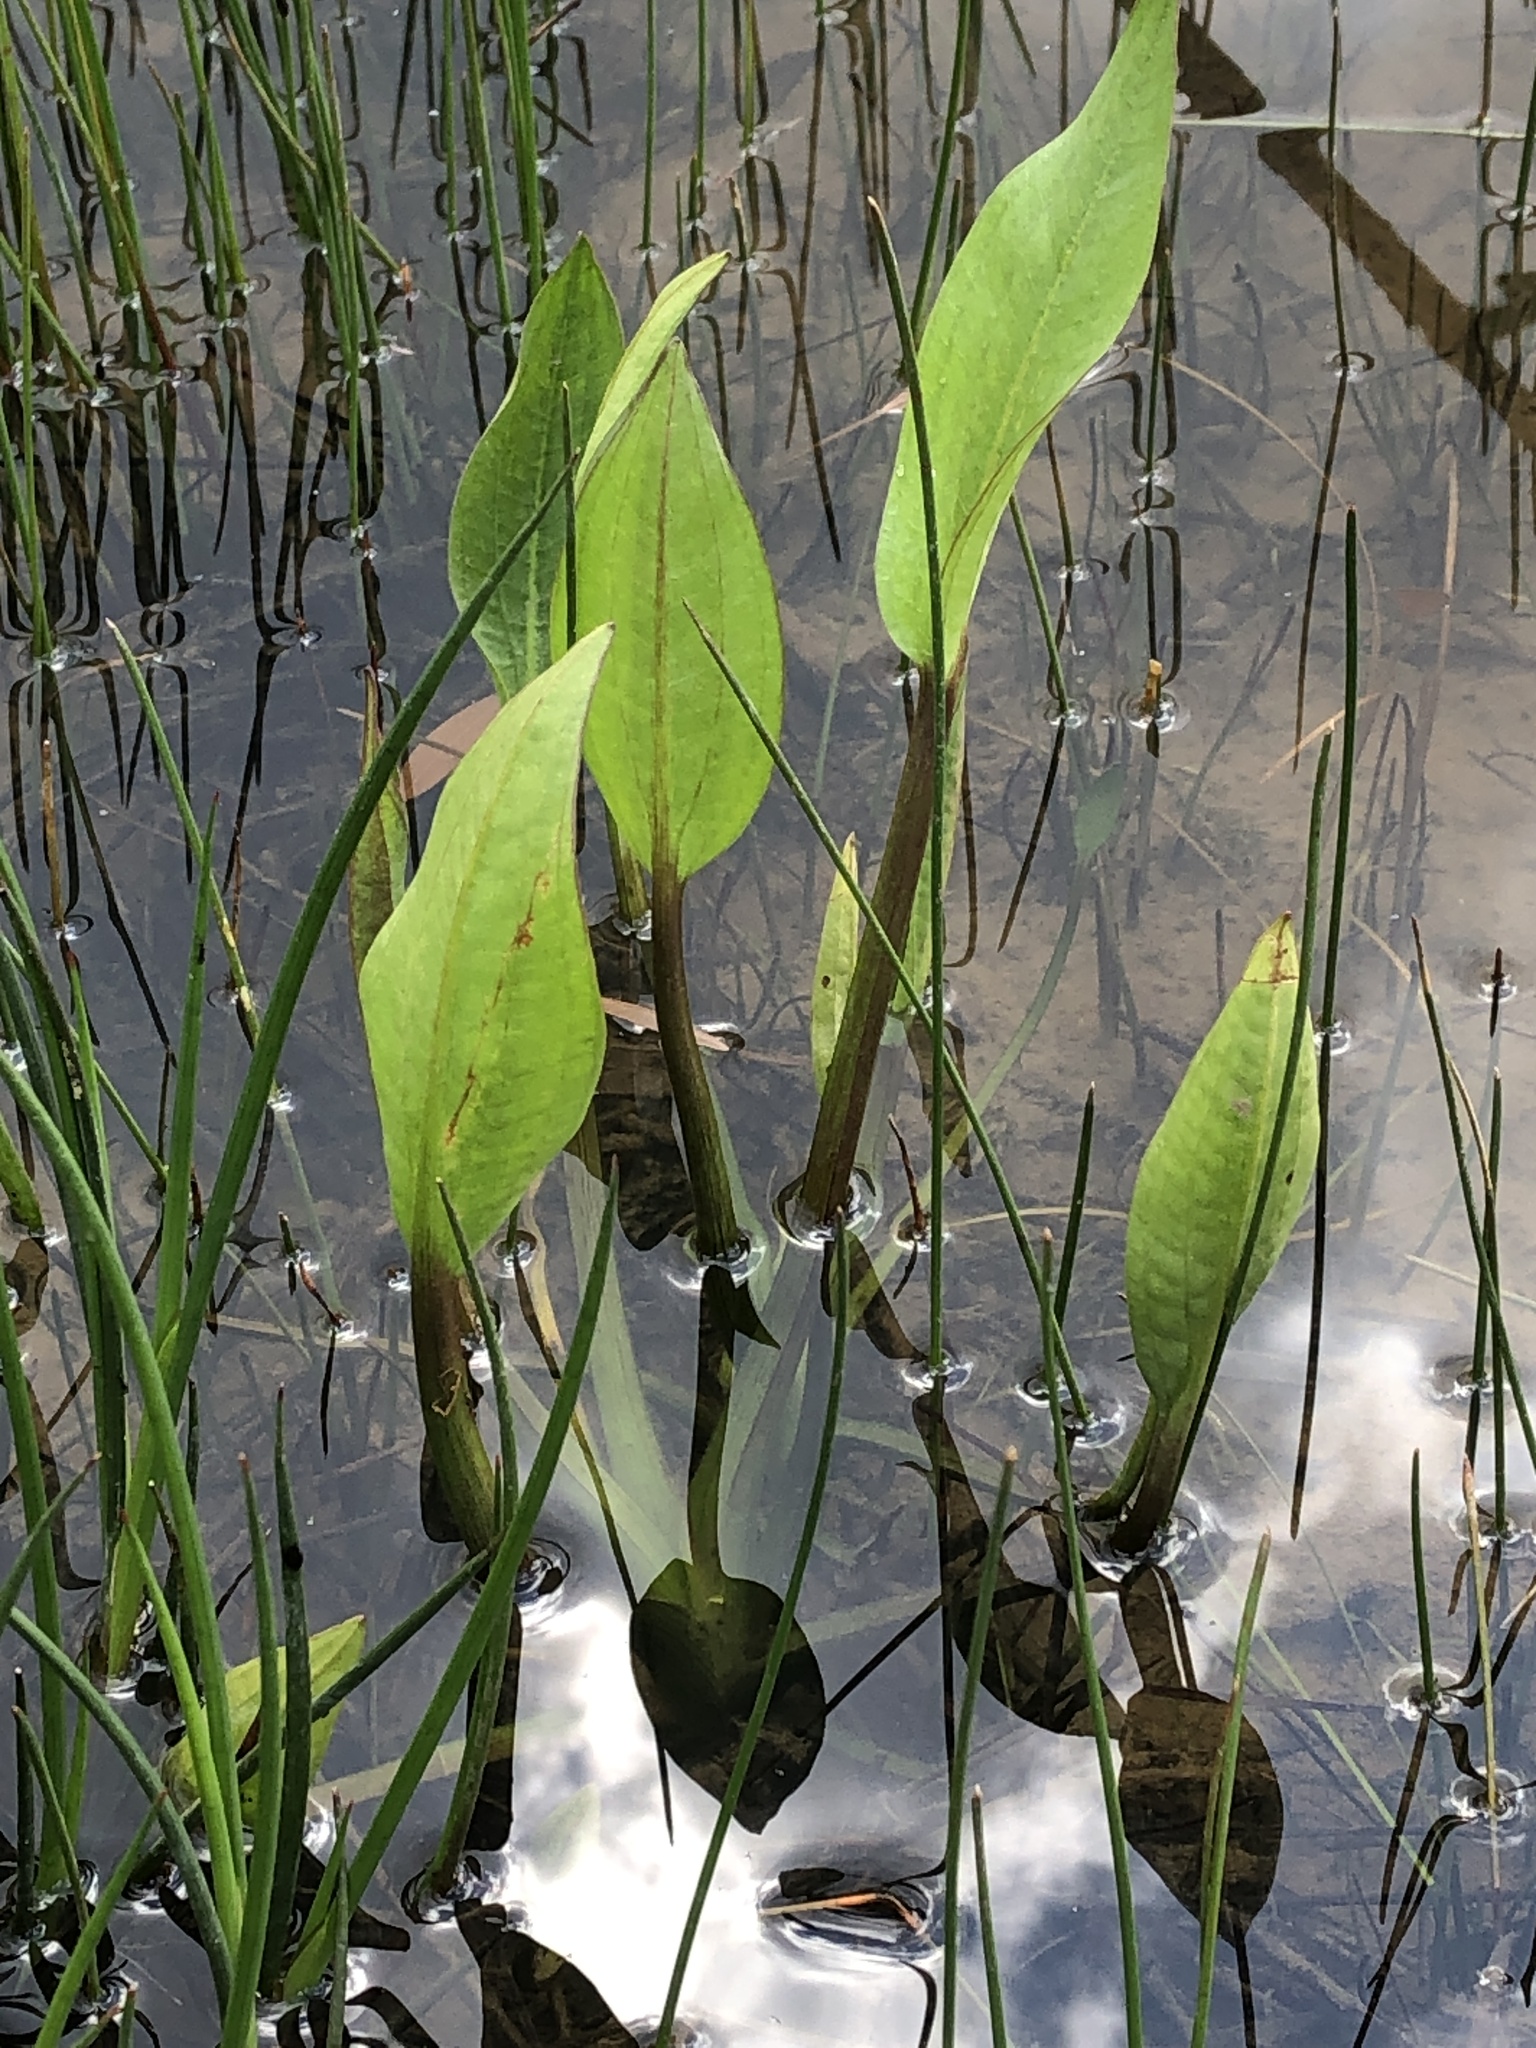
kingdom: Plantae
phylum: Tracheophyta
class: Liliopsida
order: Alismatales
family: Alismataceae
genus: Alisma
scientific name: Alisma plantago-aquatica
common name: Water-plantain
